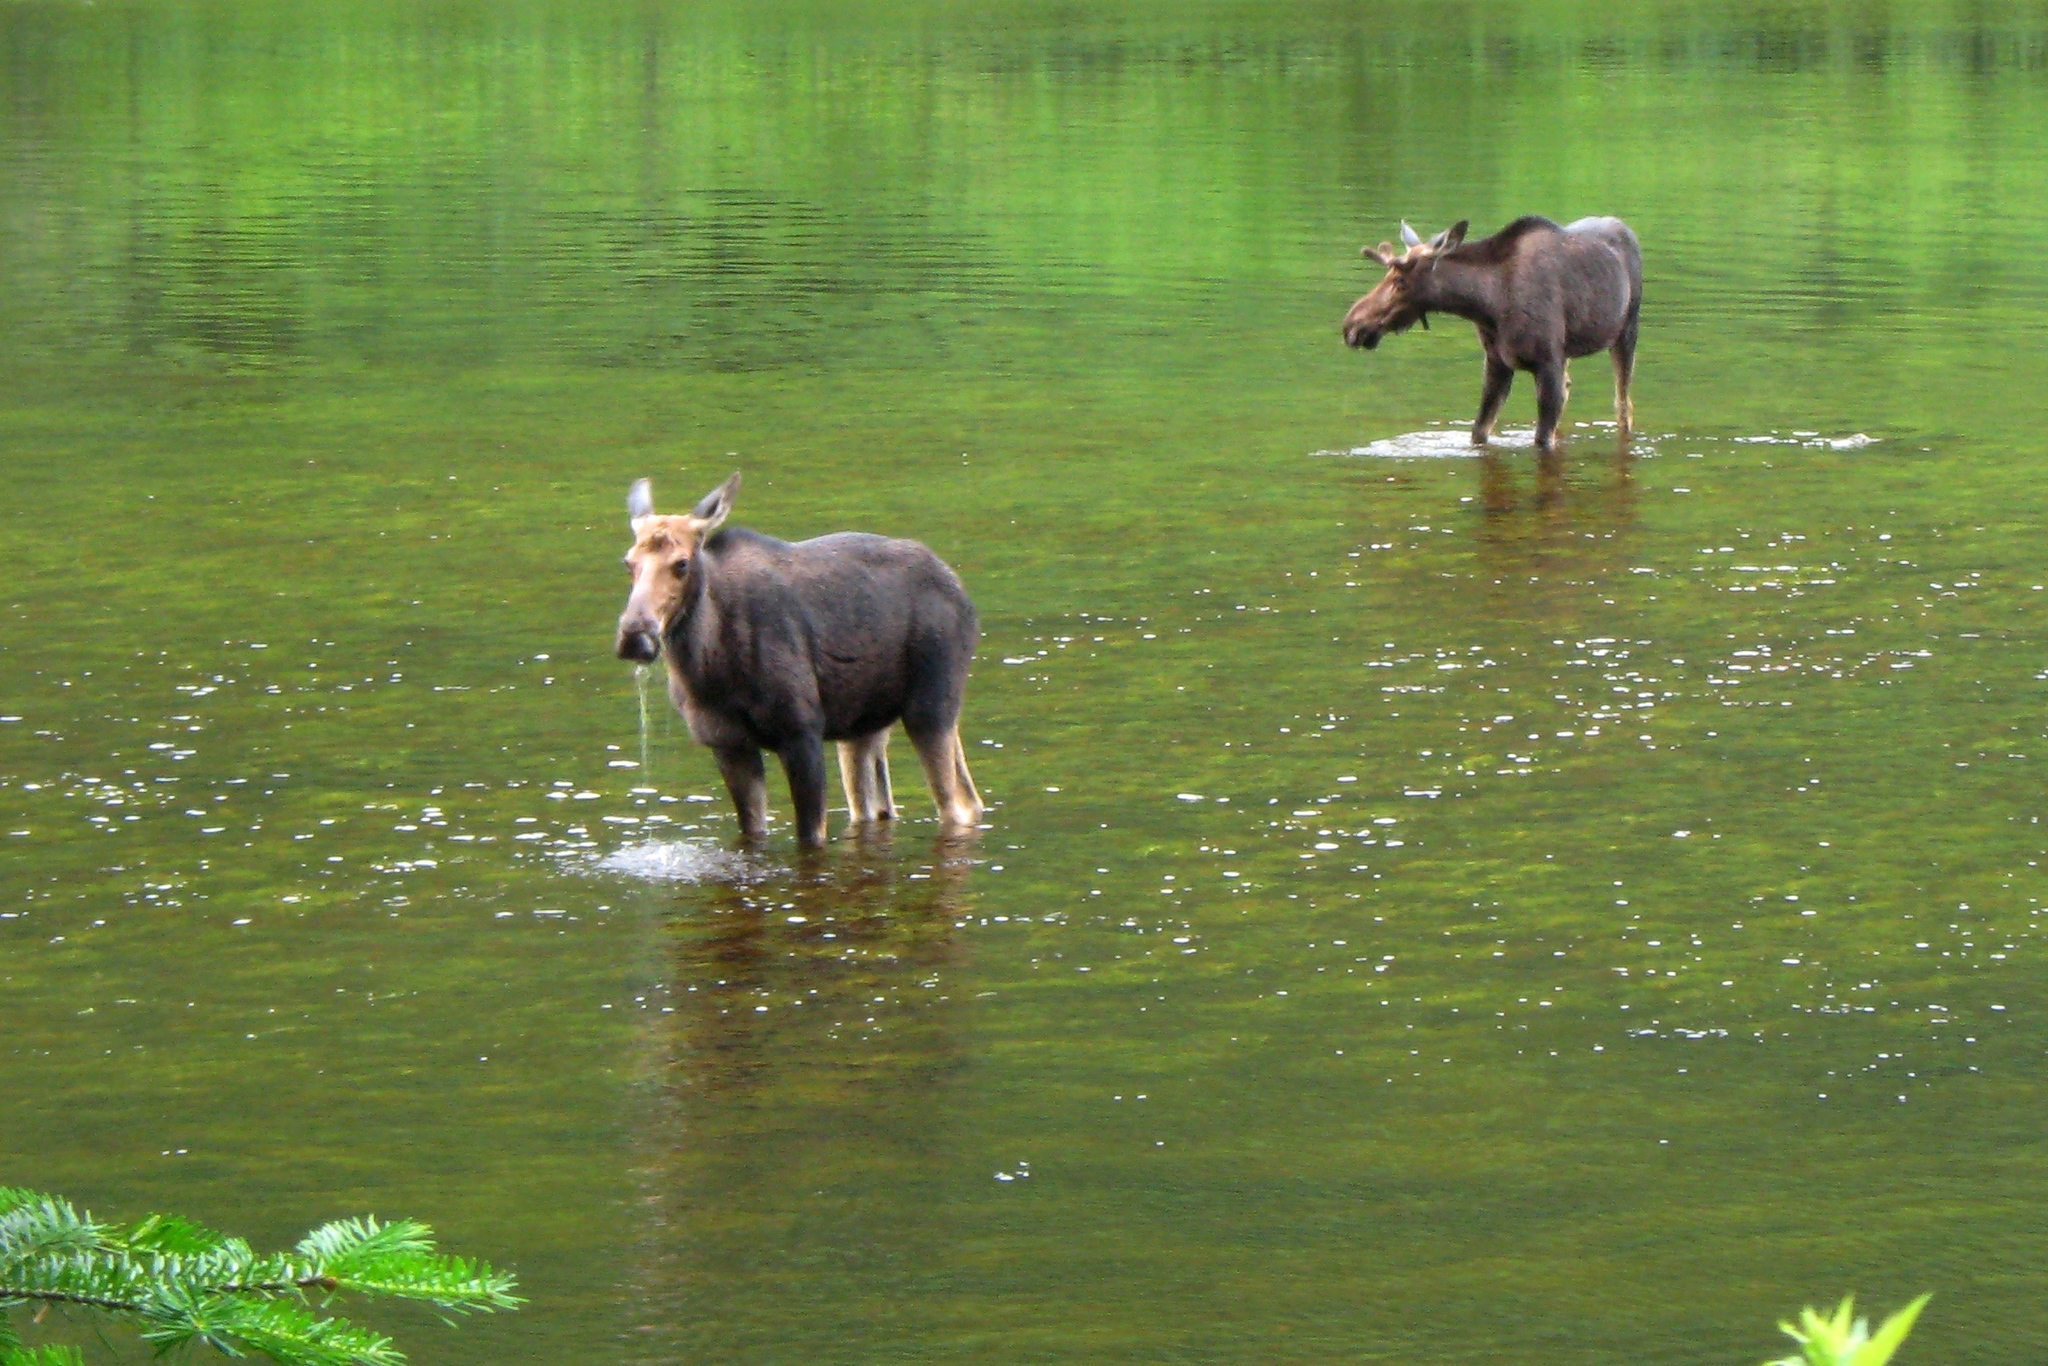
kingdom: Animalia
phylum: Chordata
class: Mammalia
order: Artiodactyla
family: Cervidae
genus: Alces
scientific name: Alces alces
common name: Moose
